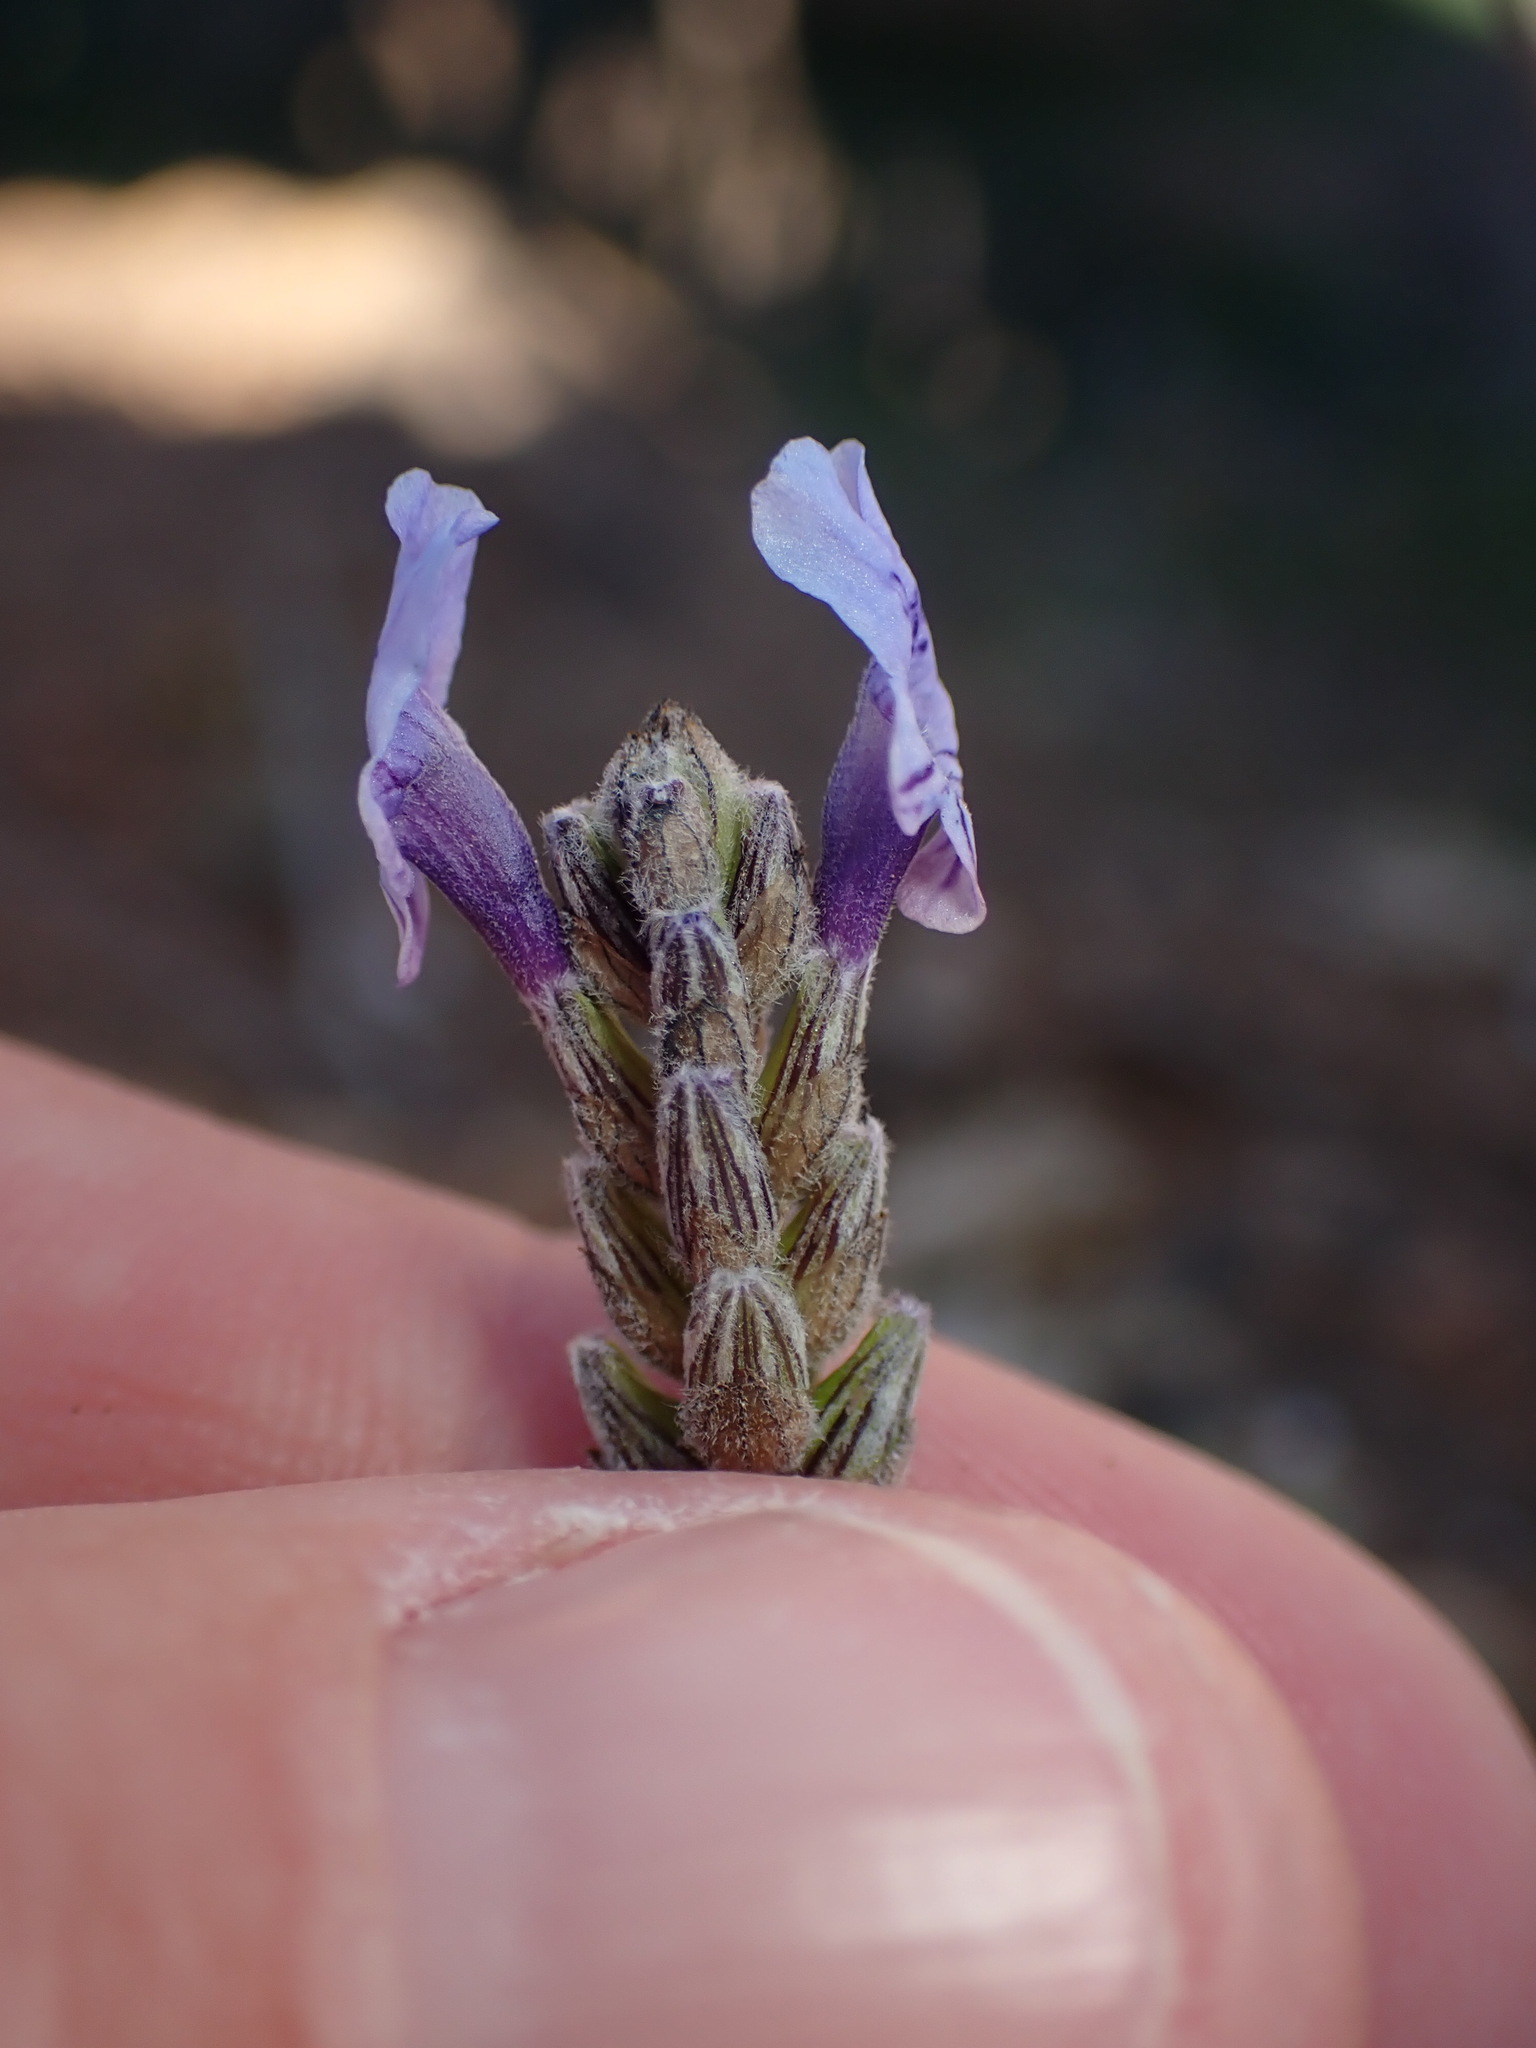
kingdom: Plantae
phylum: Tracheophyta
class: Magnoliopsida
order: Lamiales
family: Lamiaceae
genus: Lavandula
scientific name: Lavandula multifida
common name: Fern-leaf lavender
